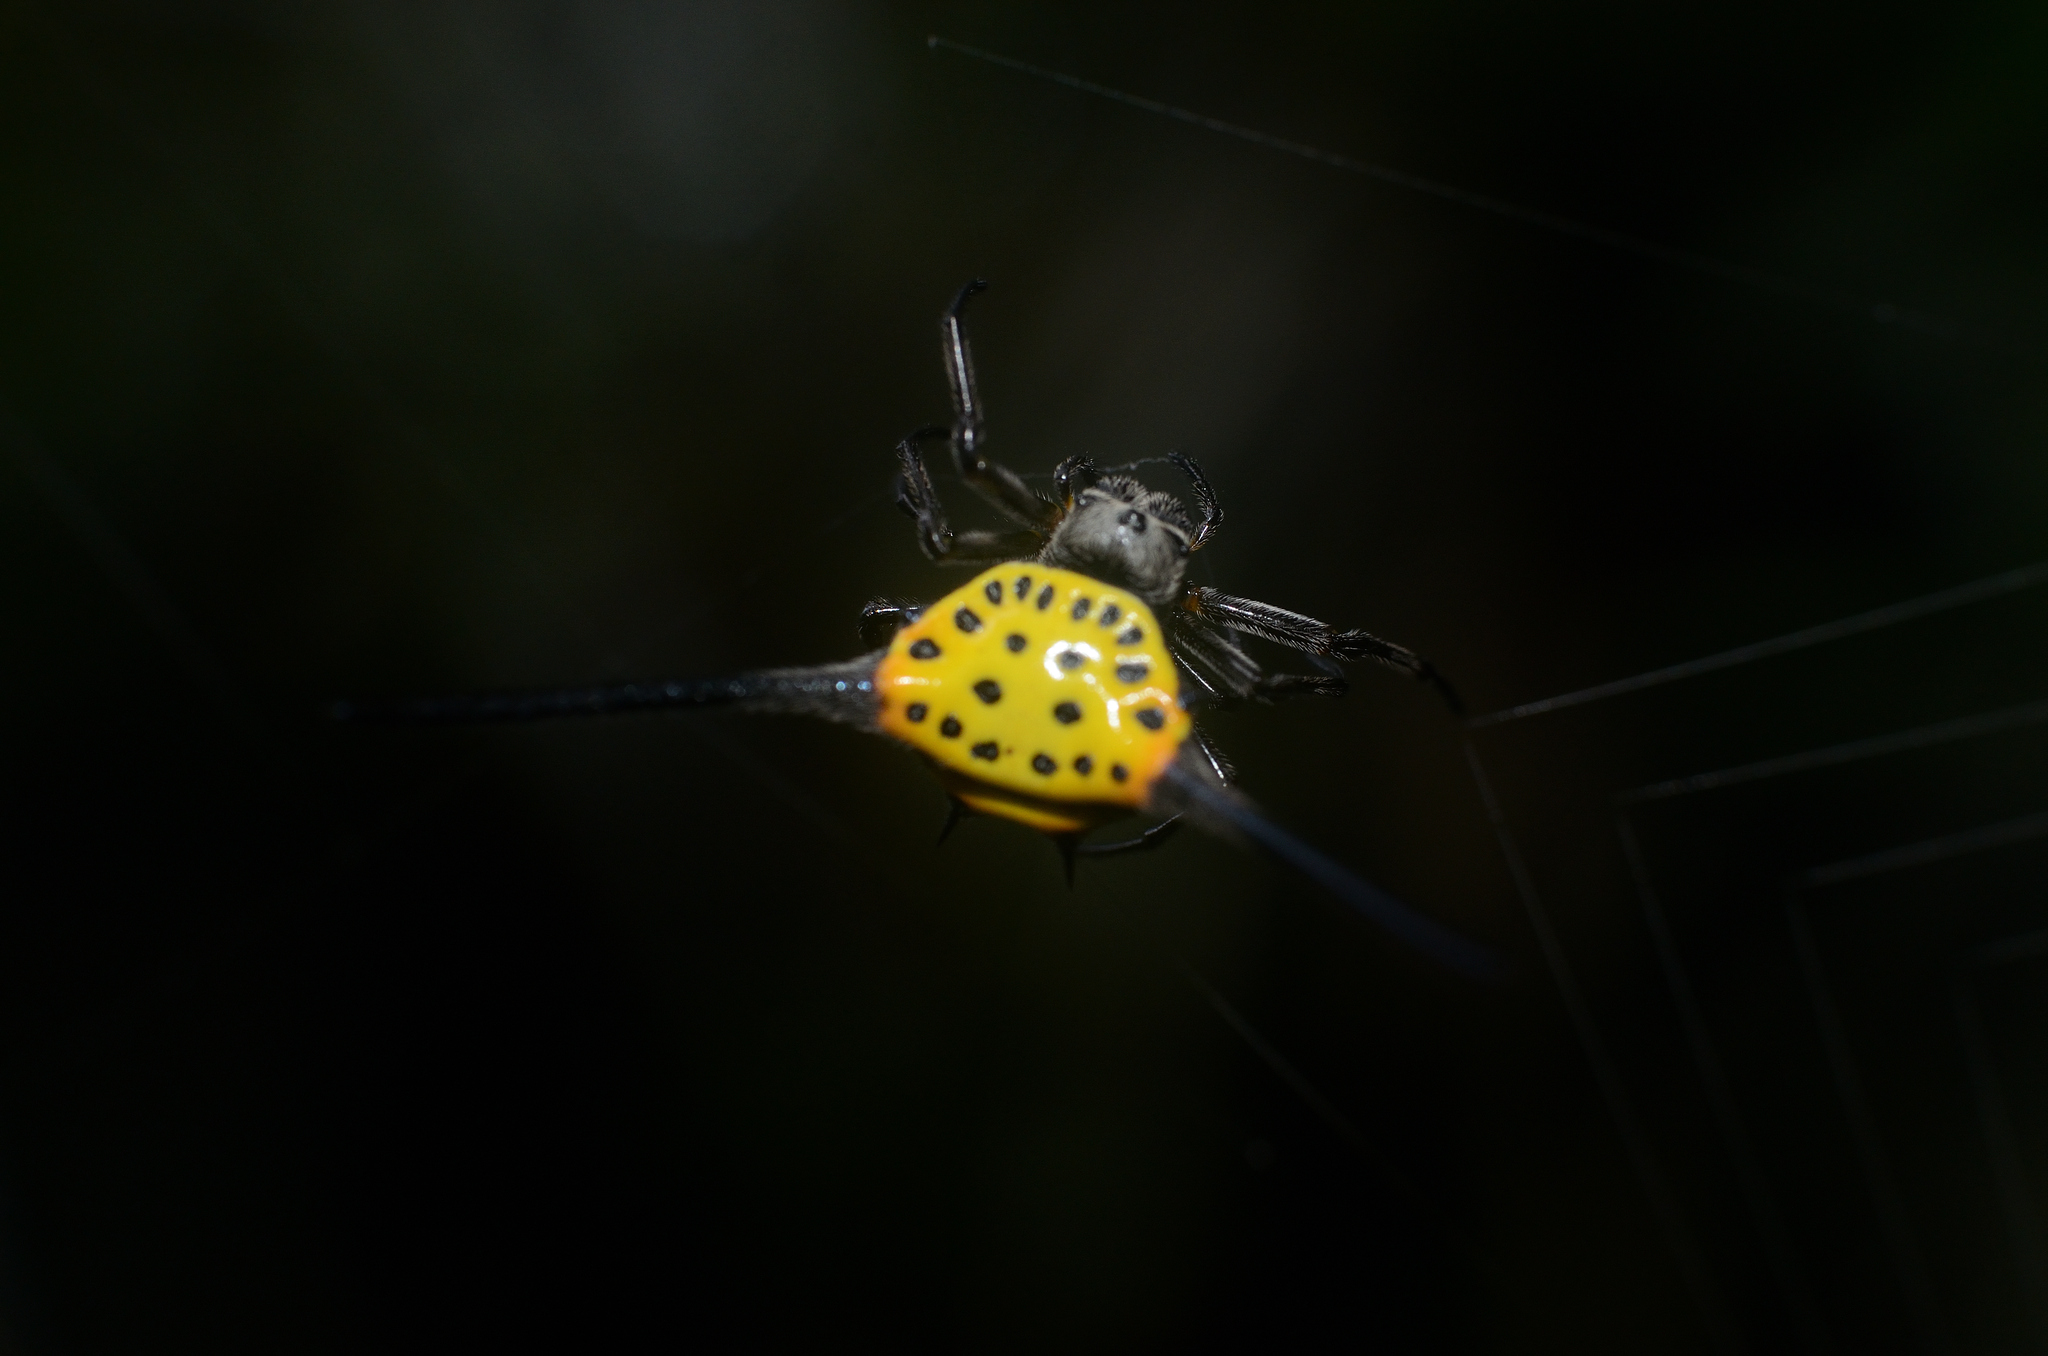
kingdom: Animalia
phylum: Arthropoda
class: Arachnida
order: Araneae
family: Araneidae
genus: Gasteracantha
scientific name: Gasteracantha dalyi
